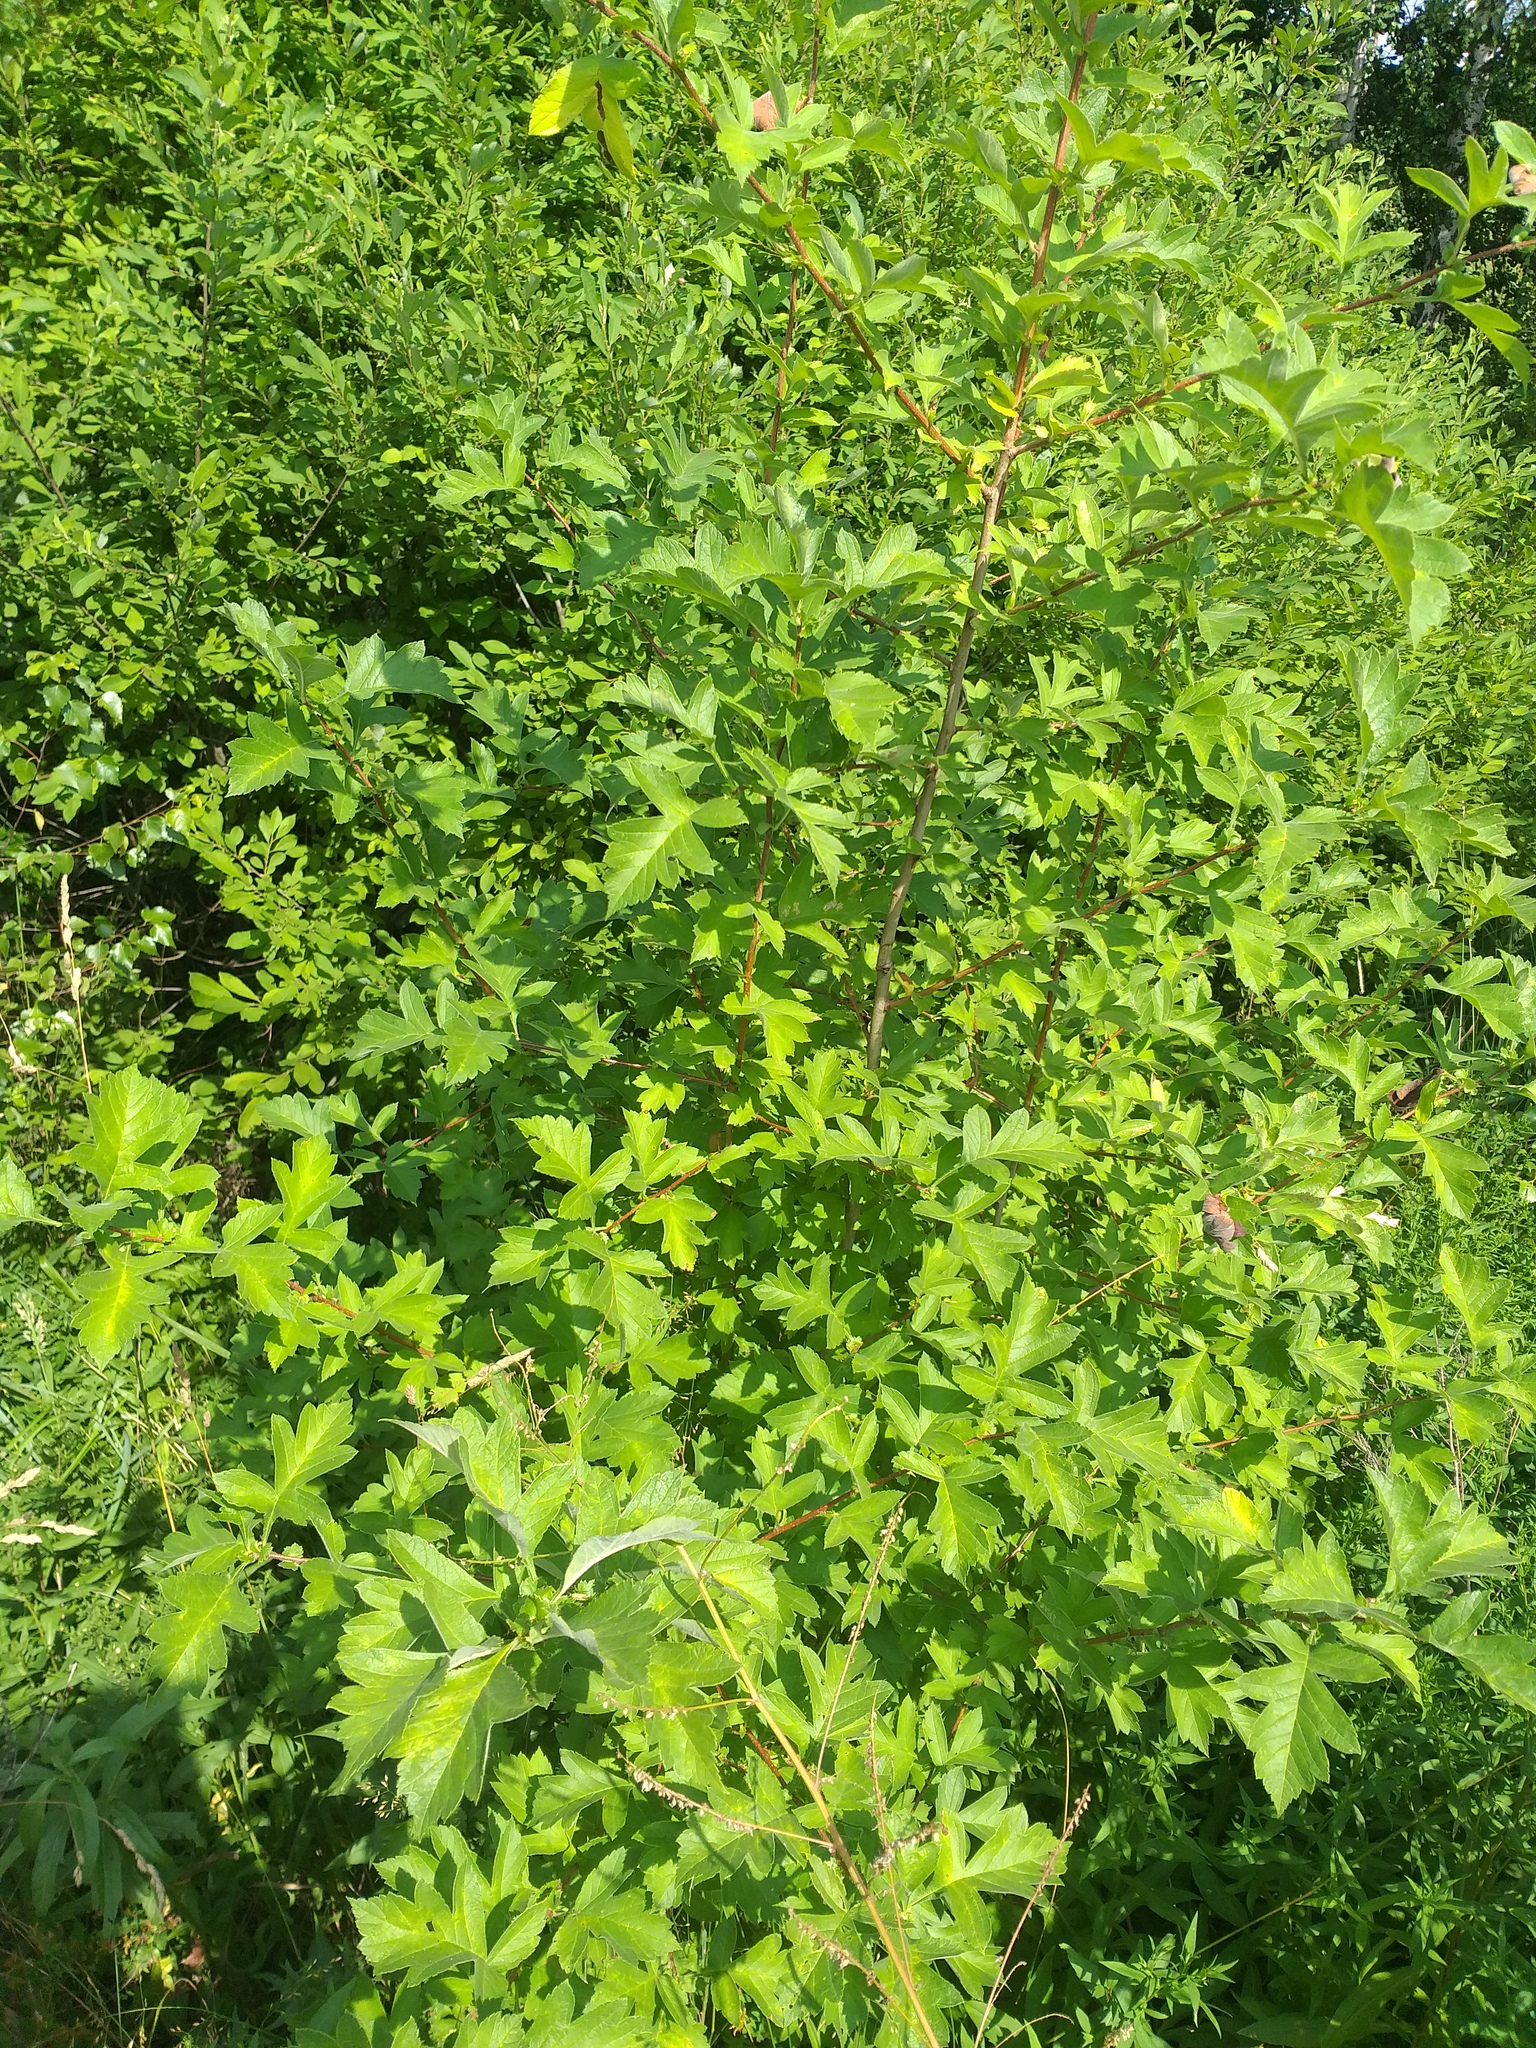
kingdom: Plantae
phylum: Tracheophyta
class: Magnoliopsida
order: Rosales
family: Rosaceae
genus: Crataegus
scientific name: Crataegus maximowiczii
